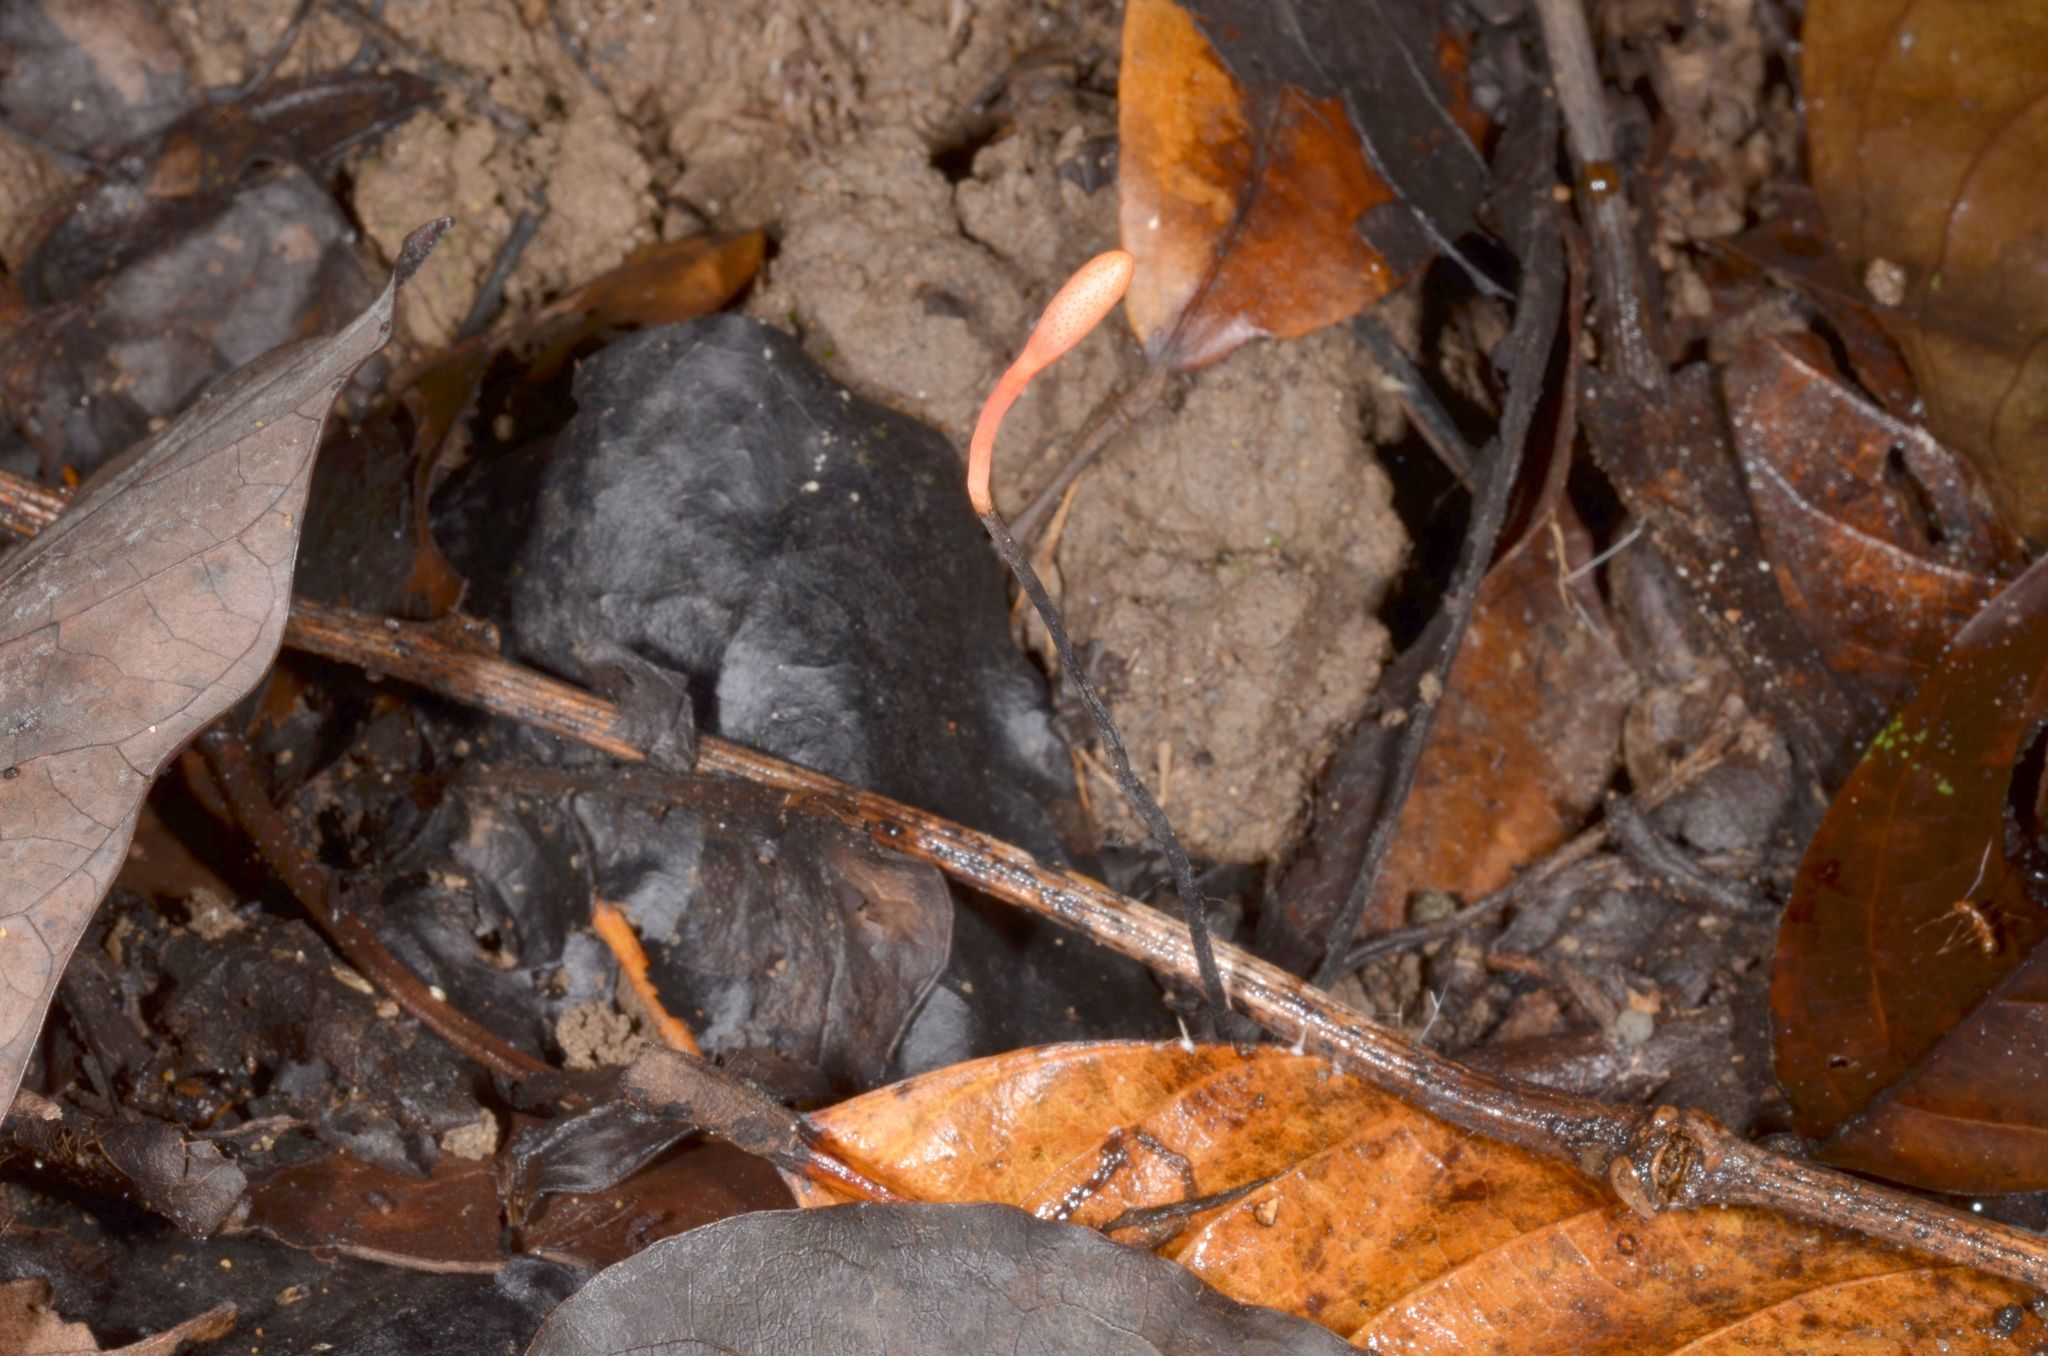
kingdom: Fungi
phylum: Ascomycota
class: Sordariomycetes
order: Hypocreales
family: Ophiocordycipitaceae
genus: Ophiocordyceps
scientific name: Ophiocordyceps nutans
